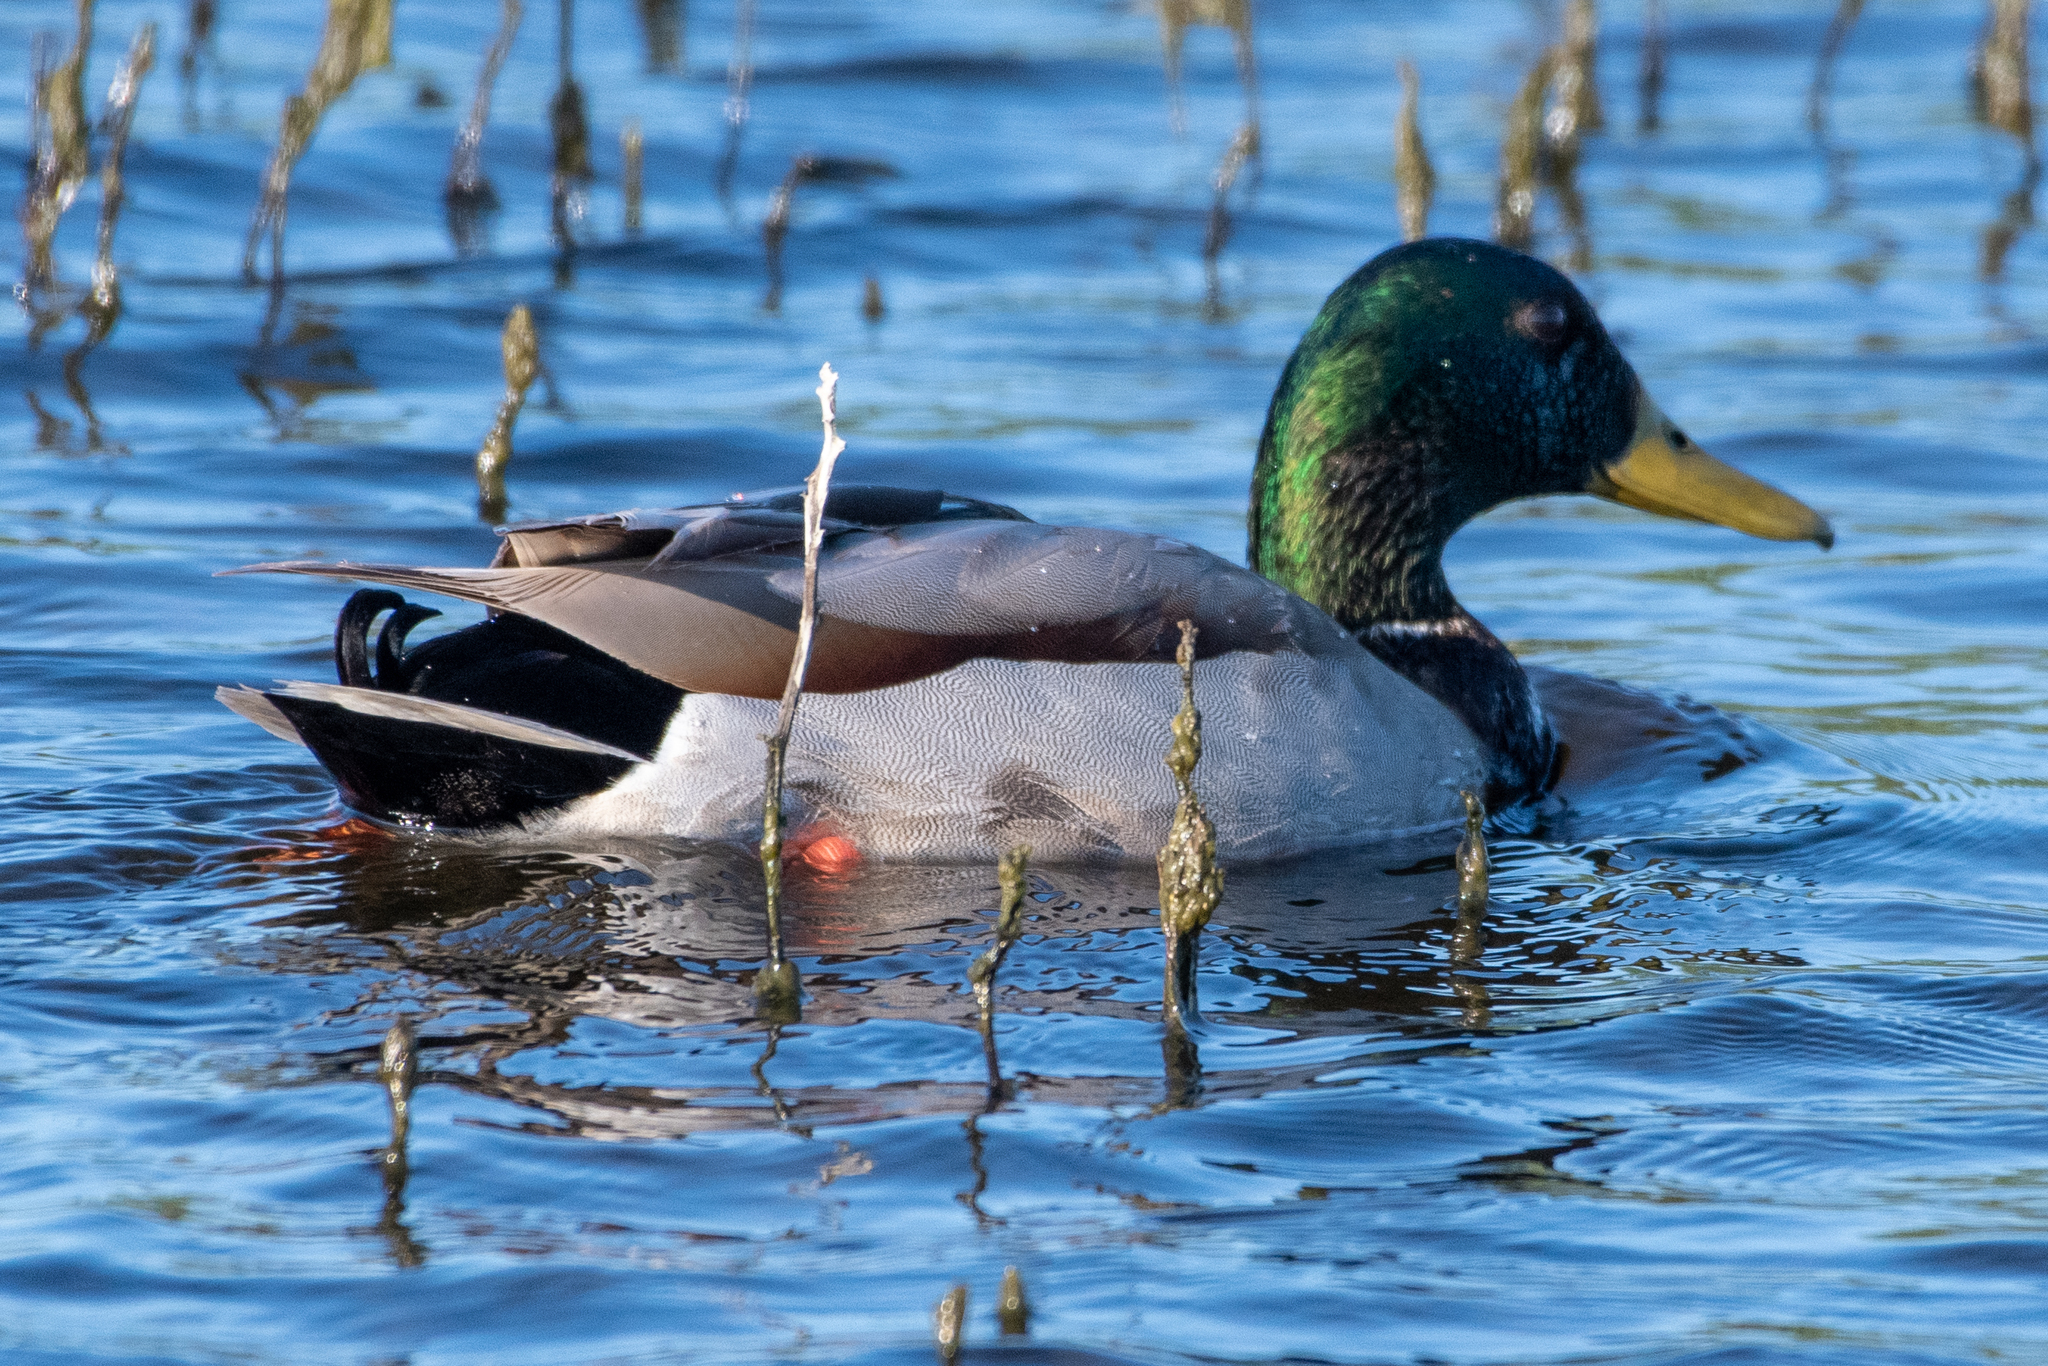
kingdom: Animalia
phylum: Chordata
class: Aves
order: Anseriformes
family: Anatidae
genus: Anas
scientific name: Anas platyrhynchos
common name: Mallard
